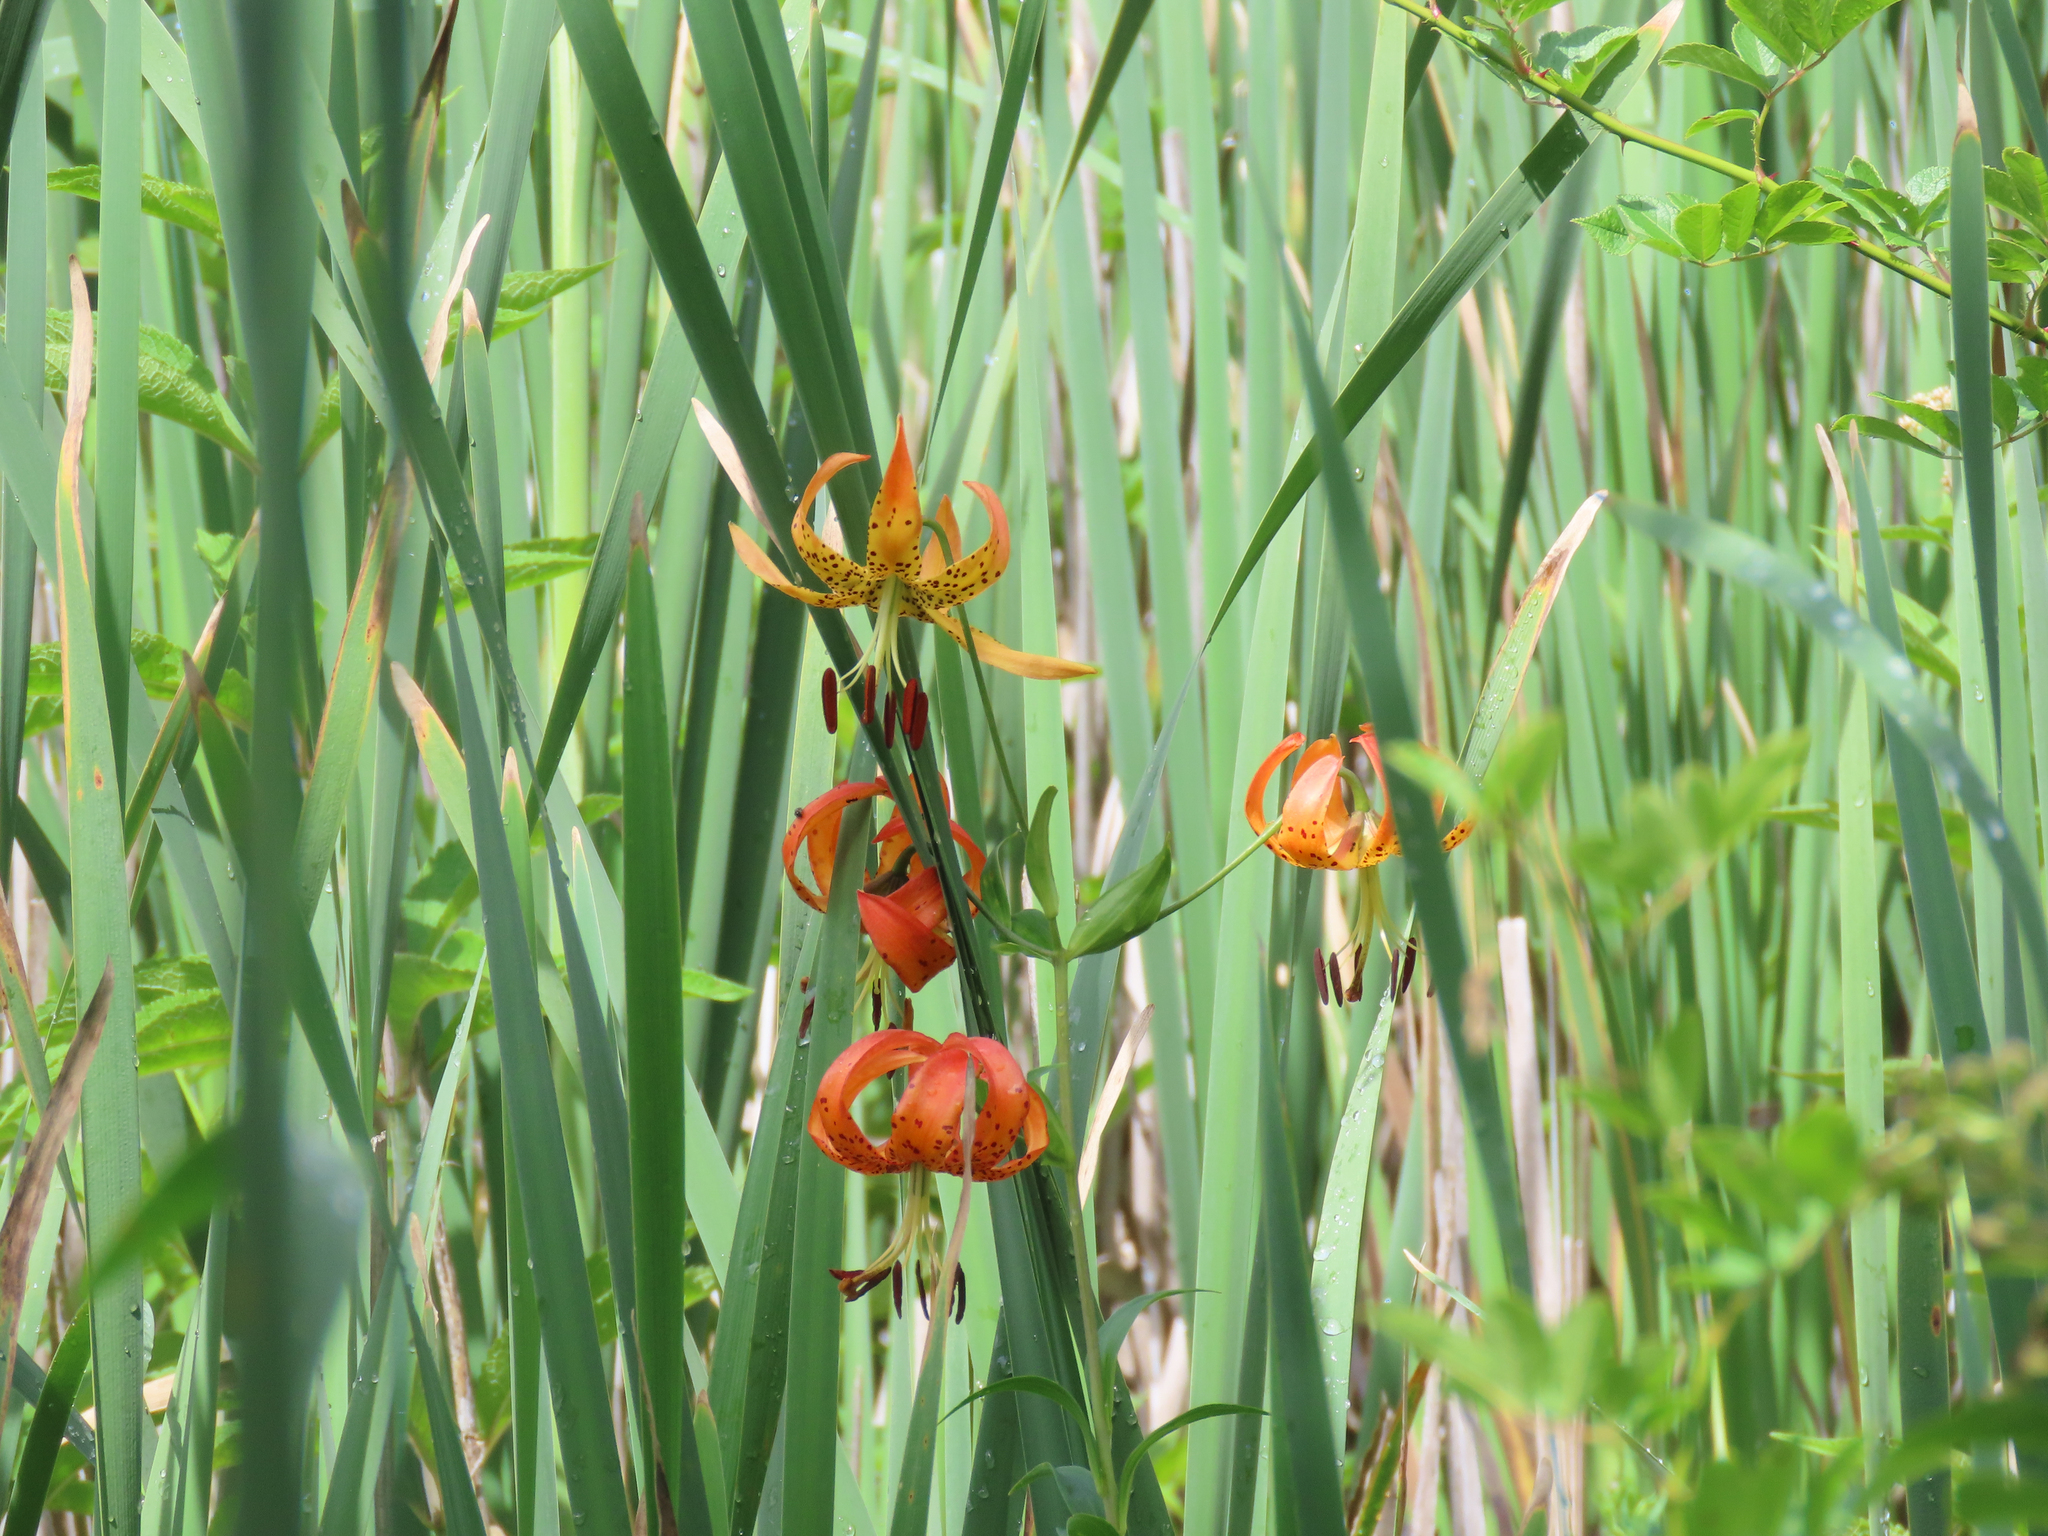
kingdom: Plantae
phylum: Tracheophyta
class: Liliopsida
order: Liliales
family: Liliaceae
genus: Lilium
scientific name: Lilium superbum
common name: American turk's-cap lily
